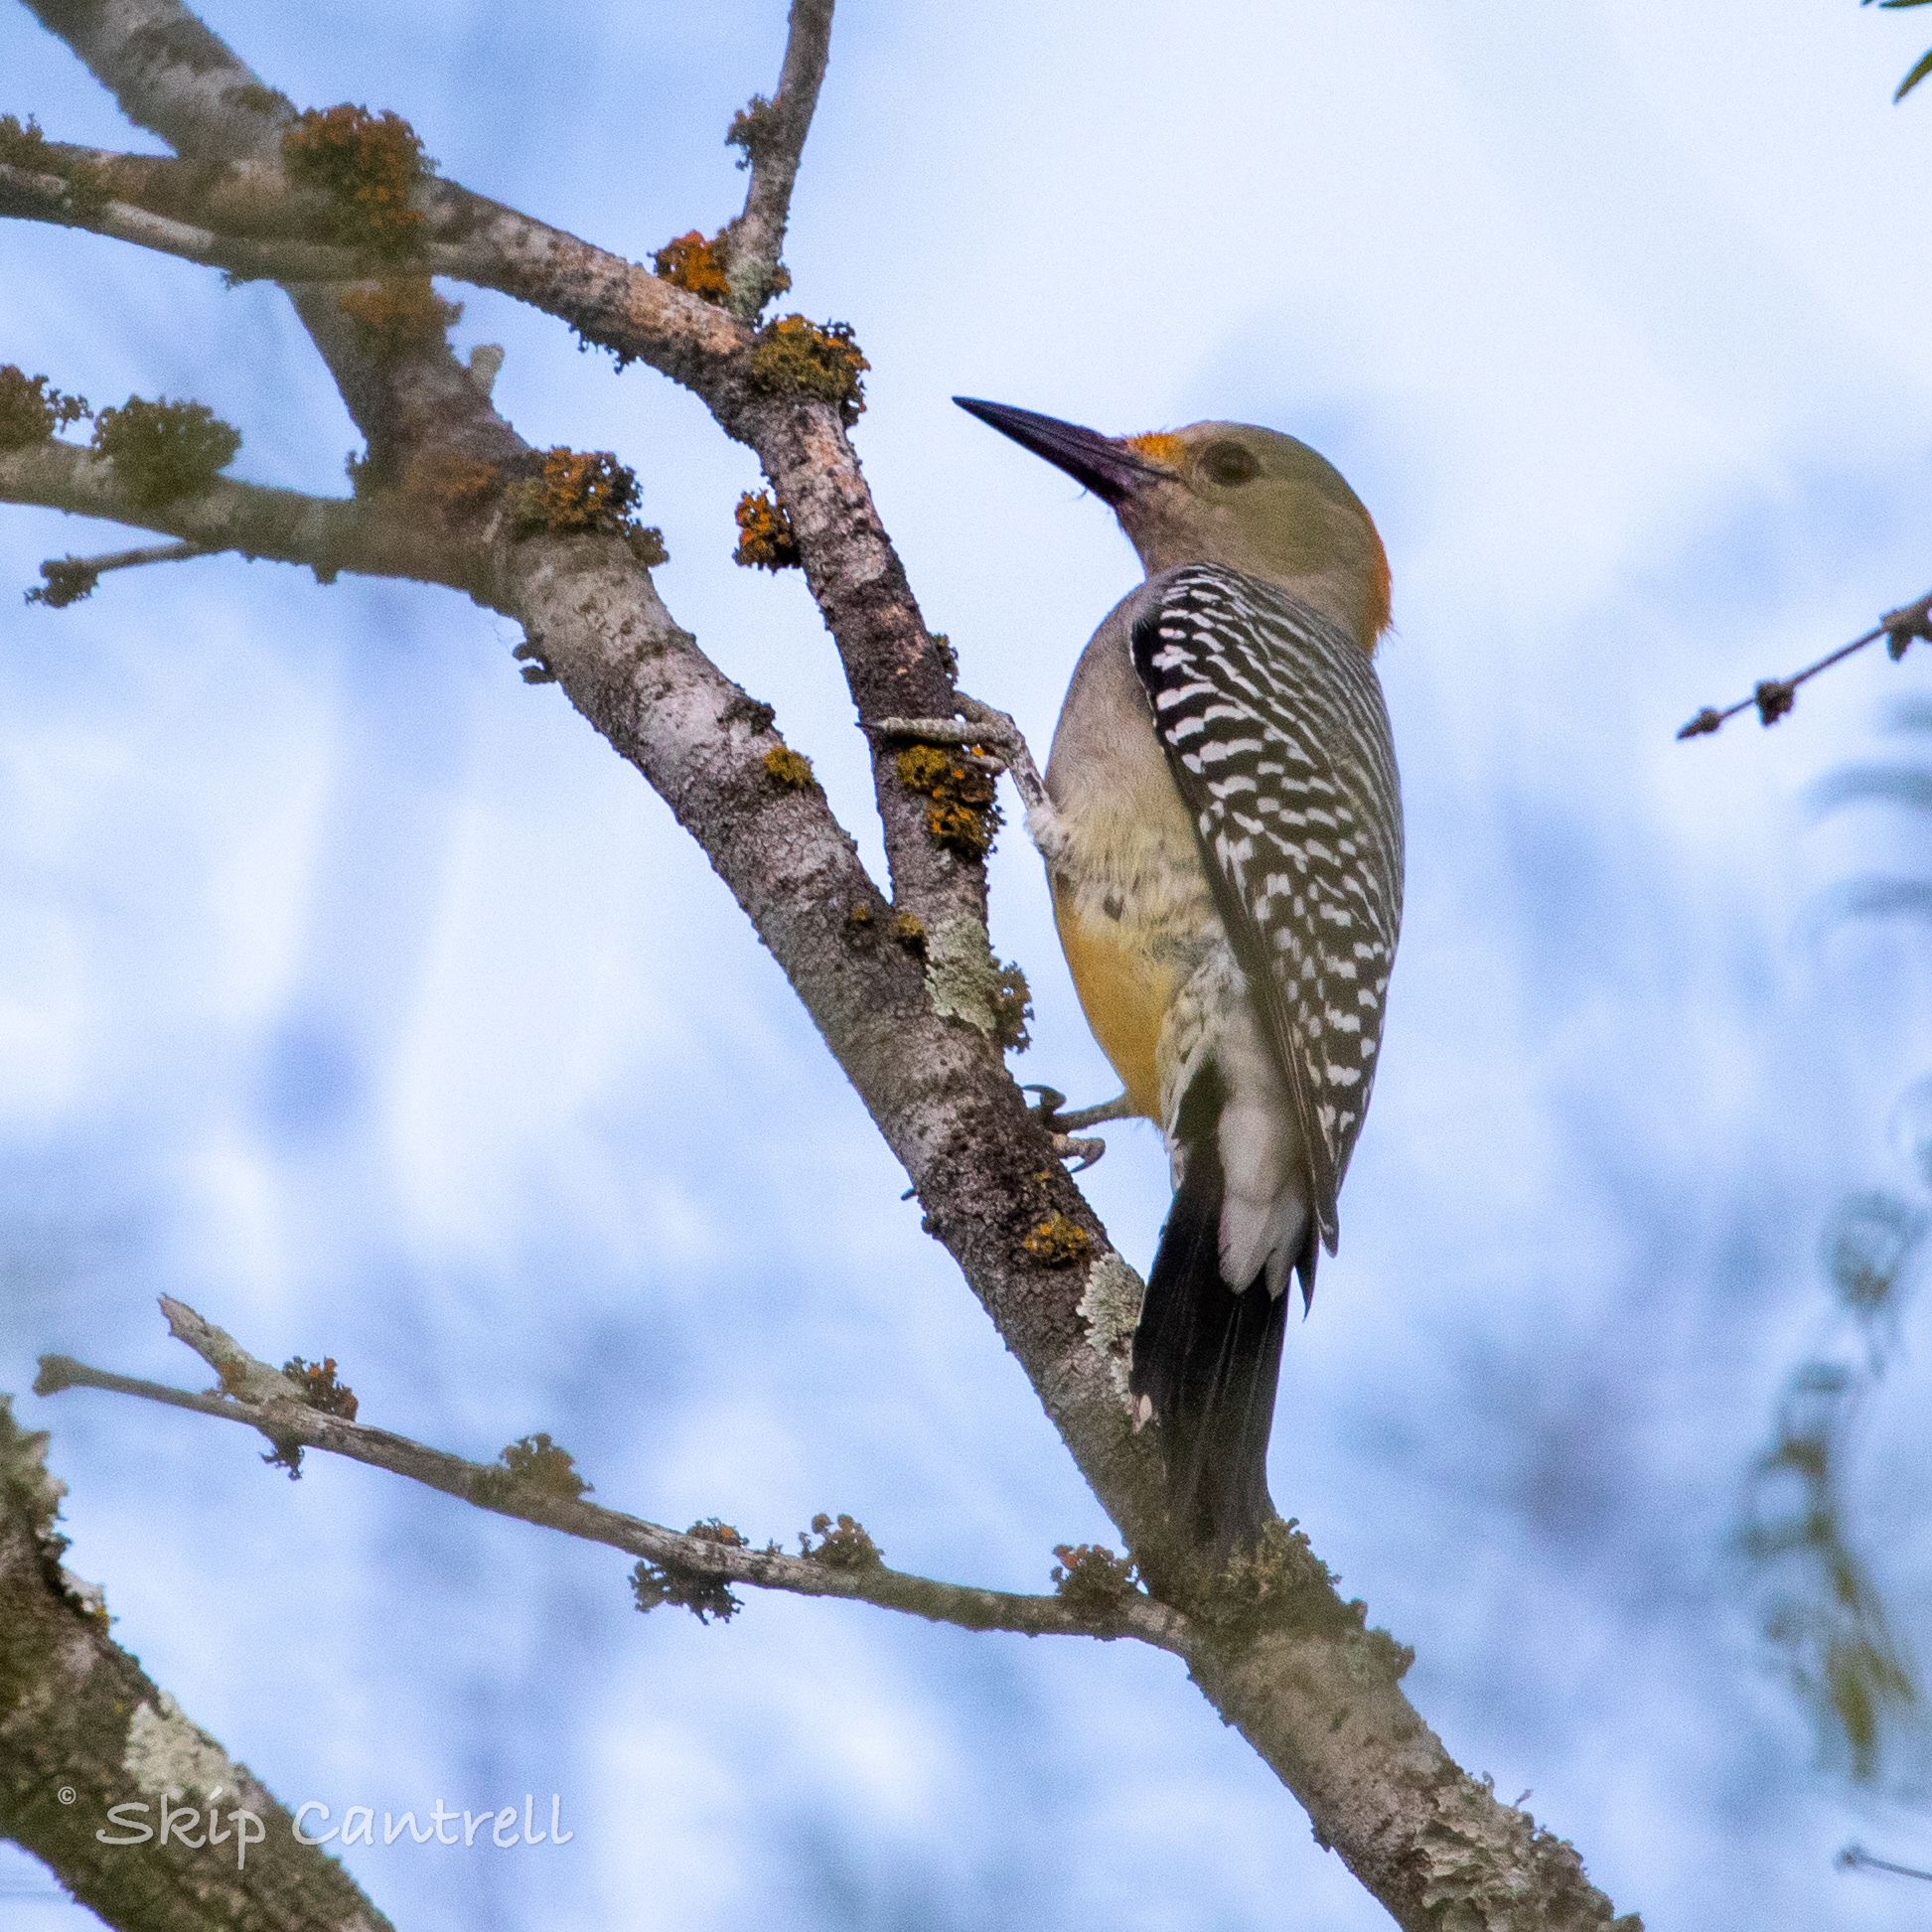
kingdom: Animalia
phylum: Chordata
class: Aves
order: Piciformes
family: Picidae
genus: Melanerpes
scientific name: Melanerpes aurifrons
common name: Golden-fronted woodpecker
